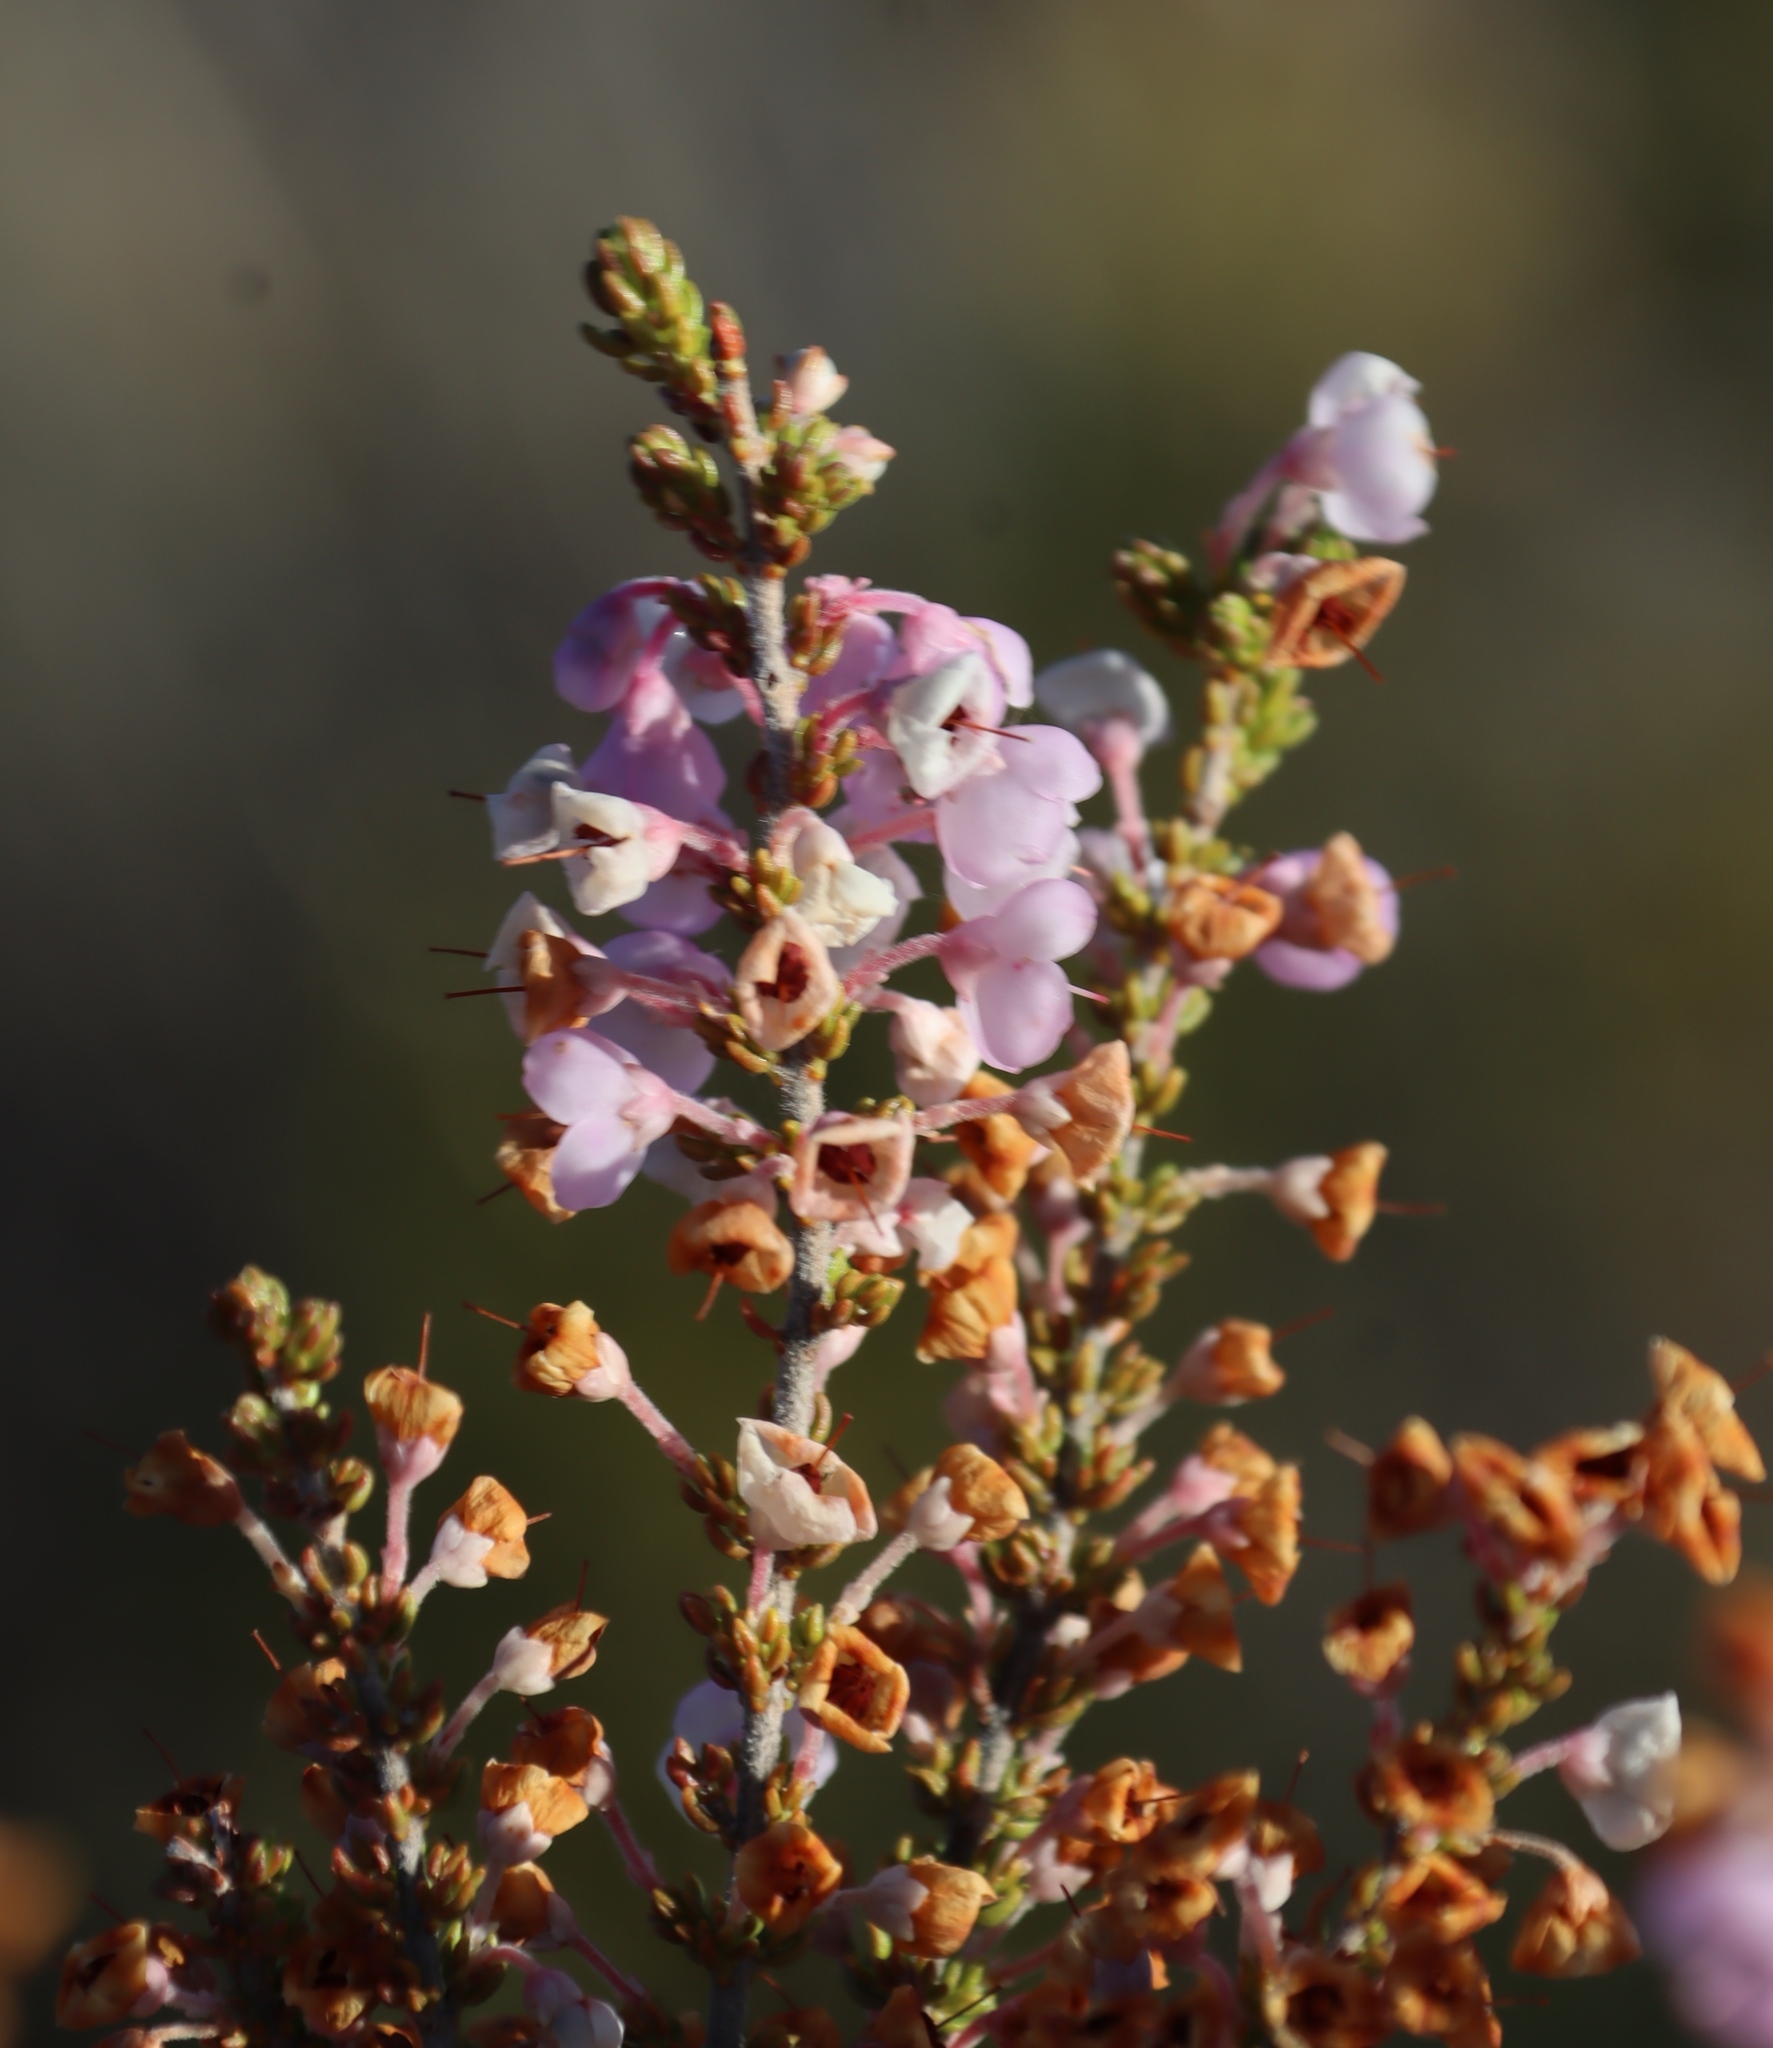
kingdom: Plantae
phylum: Tracheophyta
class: Magnoliopsida
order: Ericales
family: Ericaceae
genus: Erica
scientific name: Erica newdigatei
